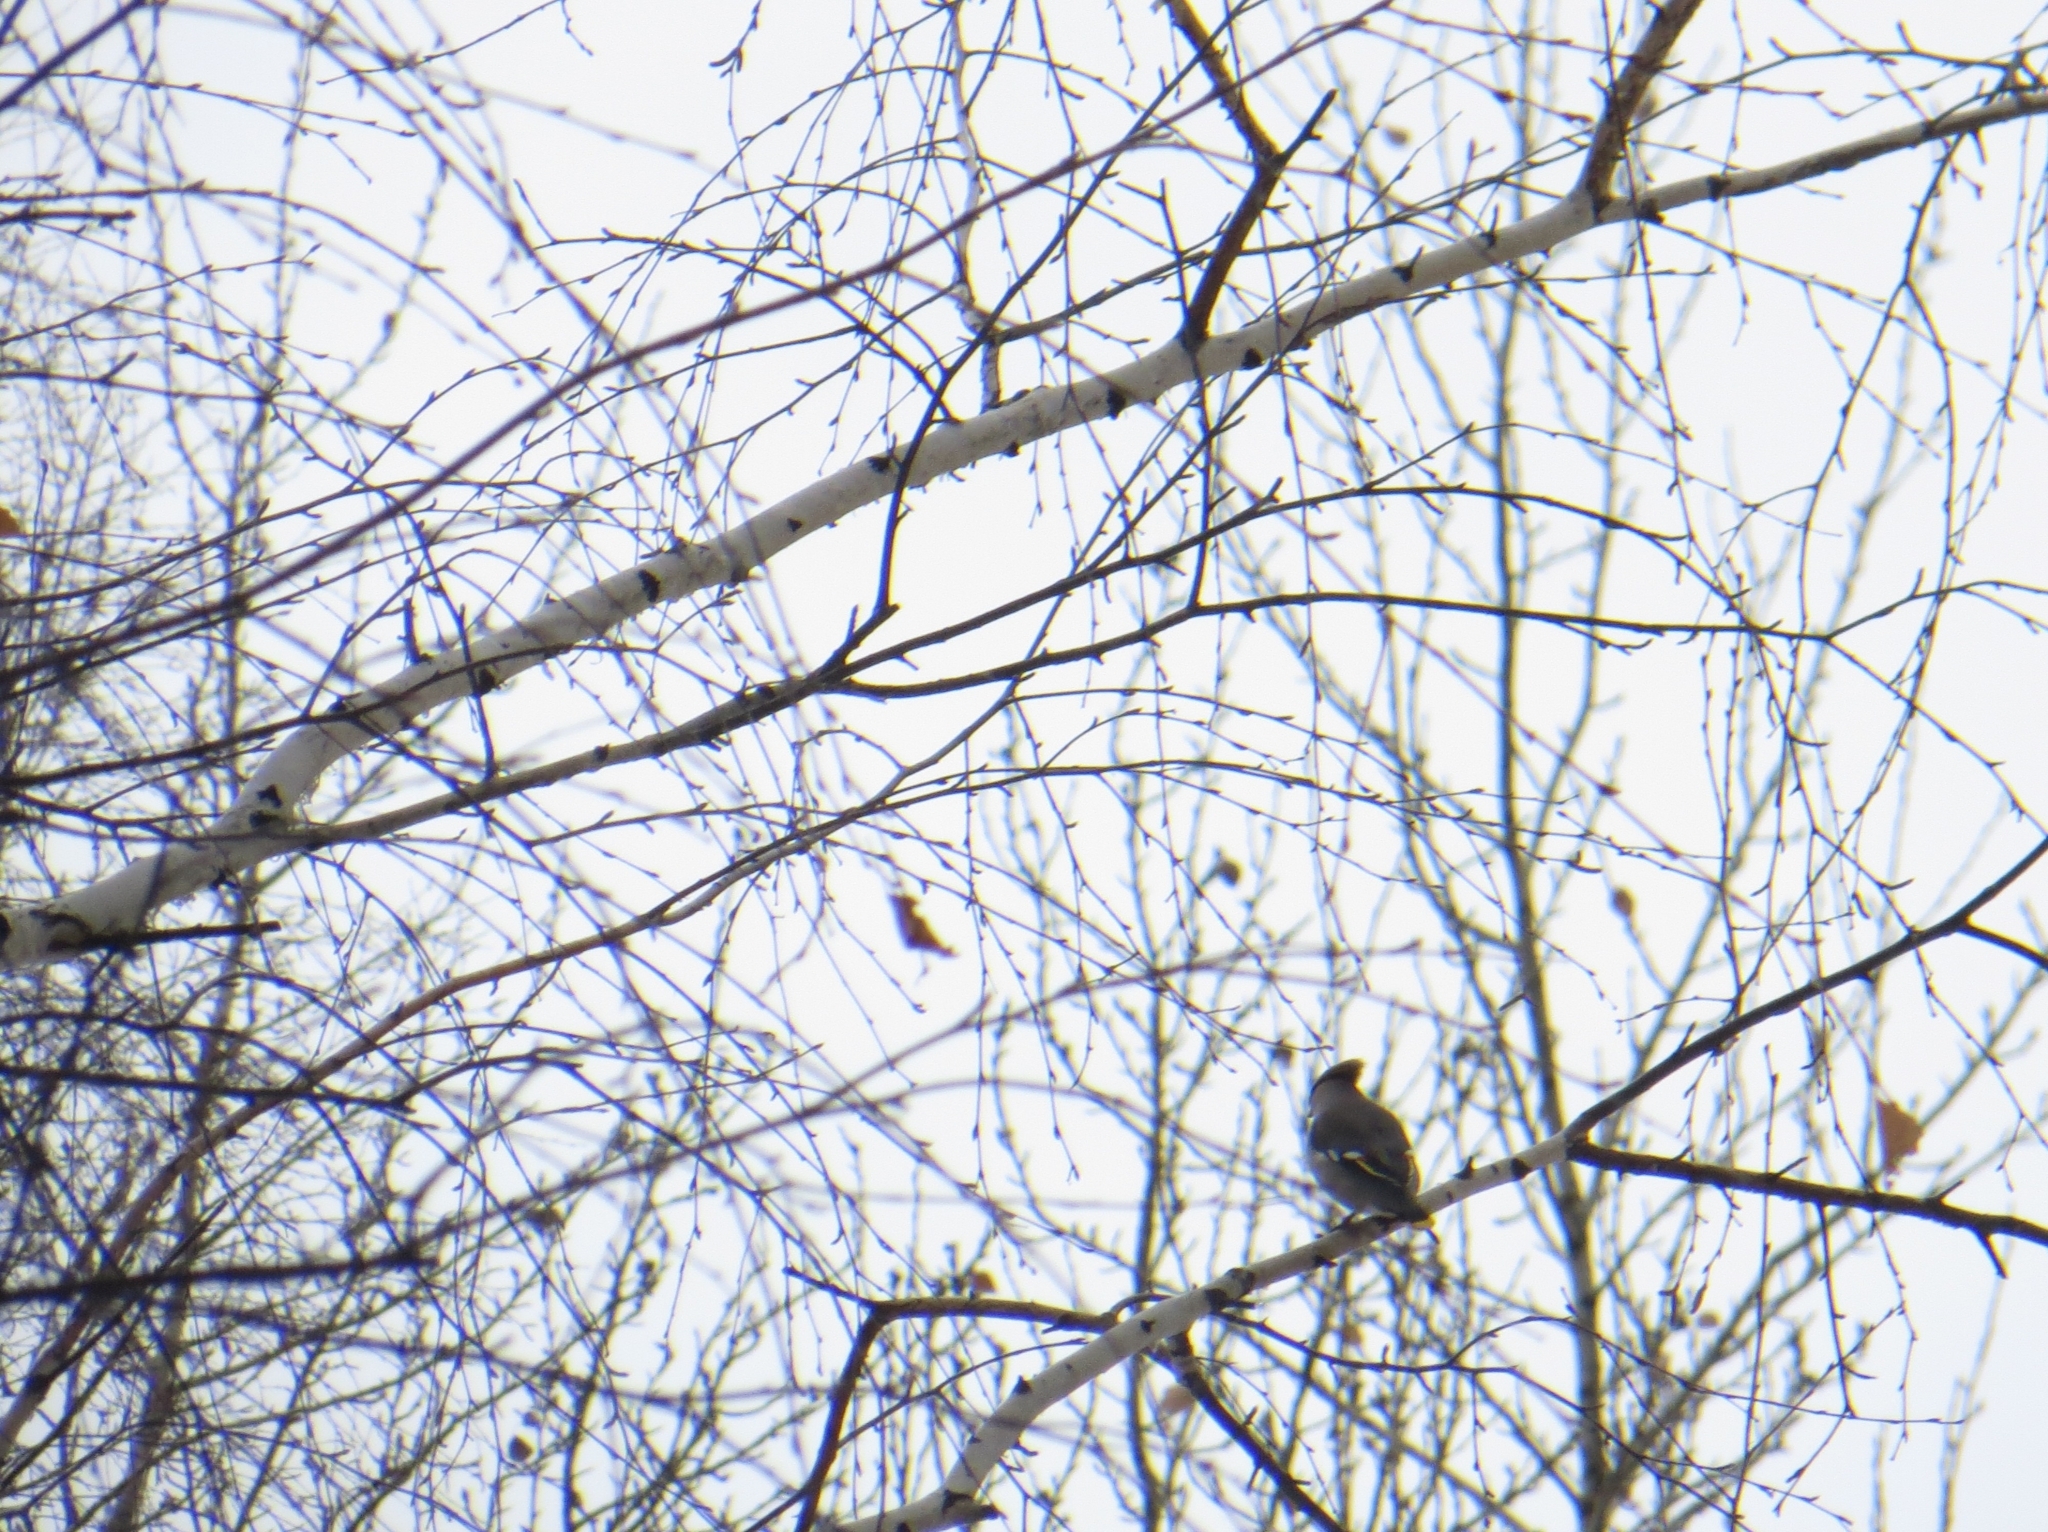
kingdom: Animalia
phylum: Chordata
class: Aves
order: Passeriformes
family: Bombycillidae
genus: Bombycilla
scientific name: Bombycilla garrulus
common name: Bohemian waxwing
